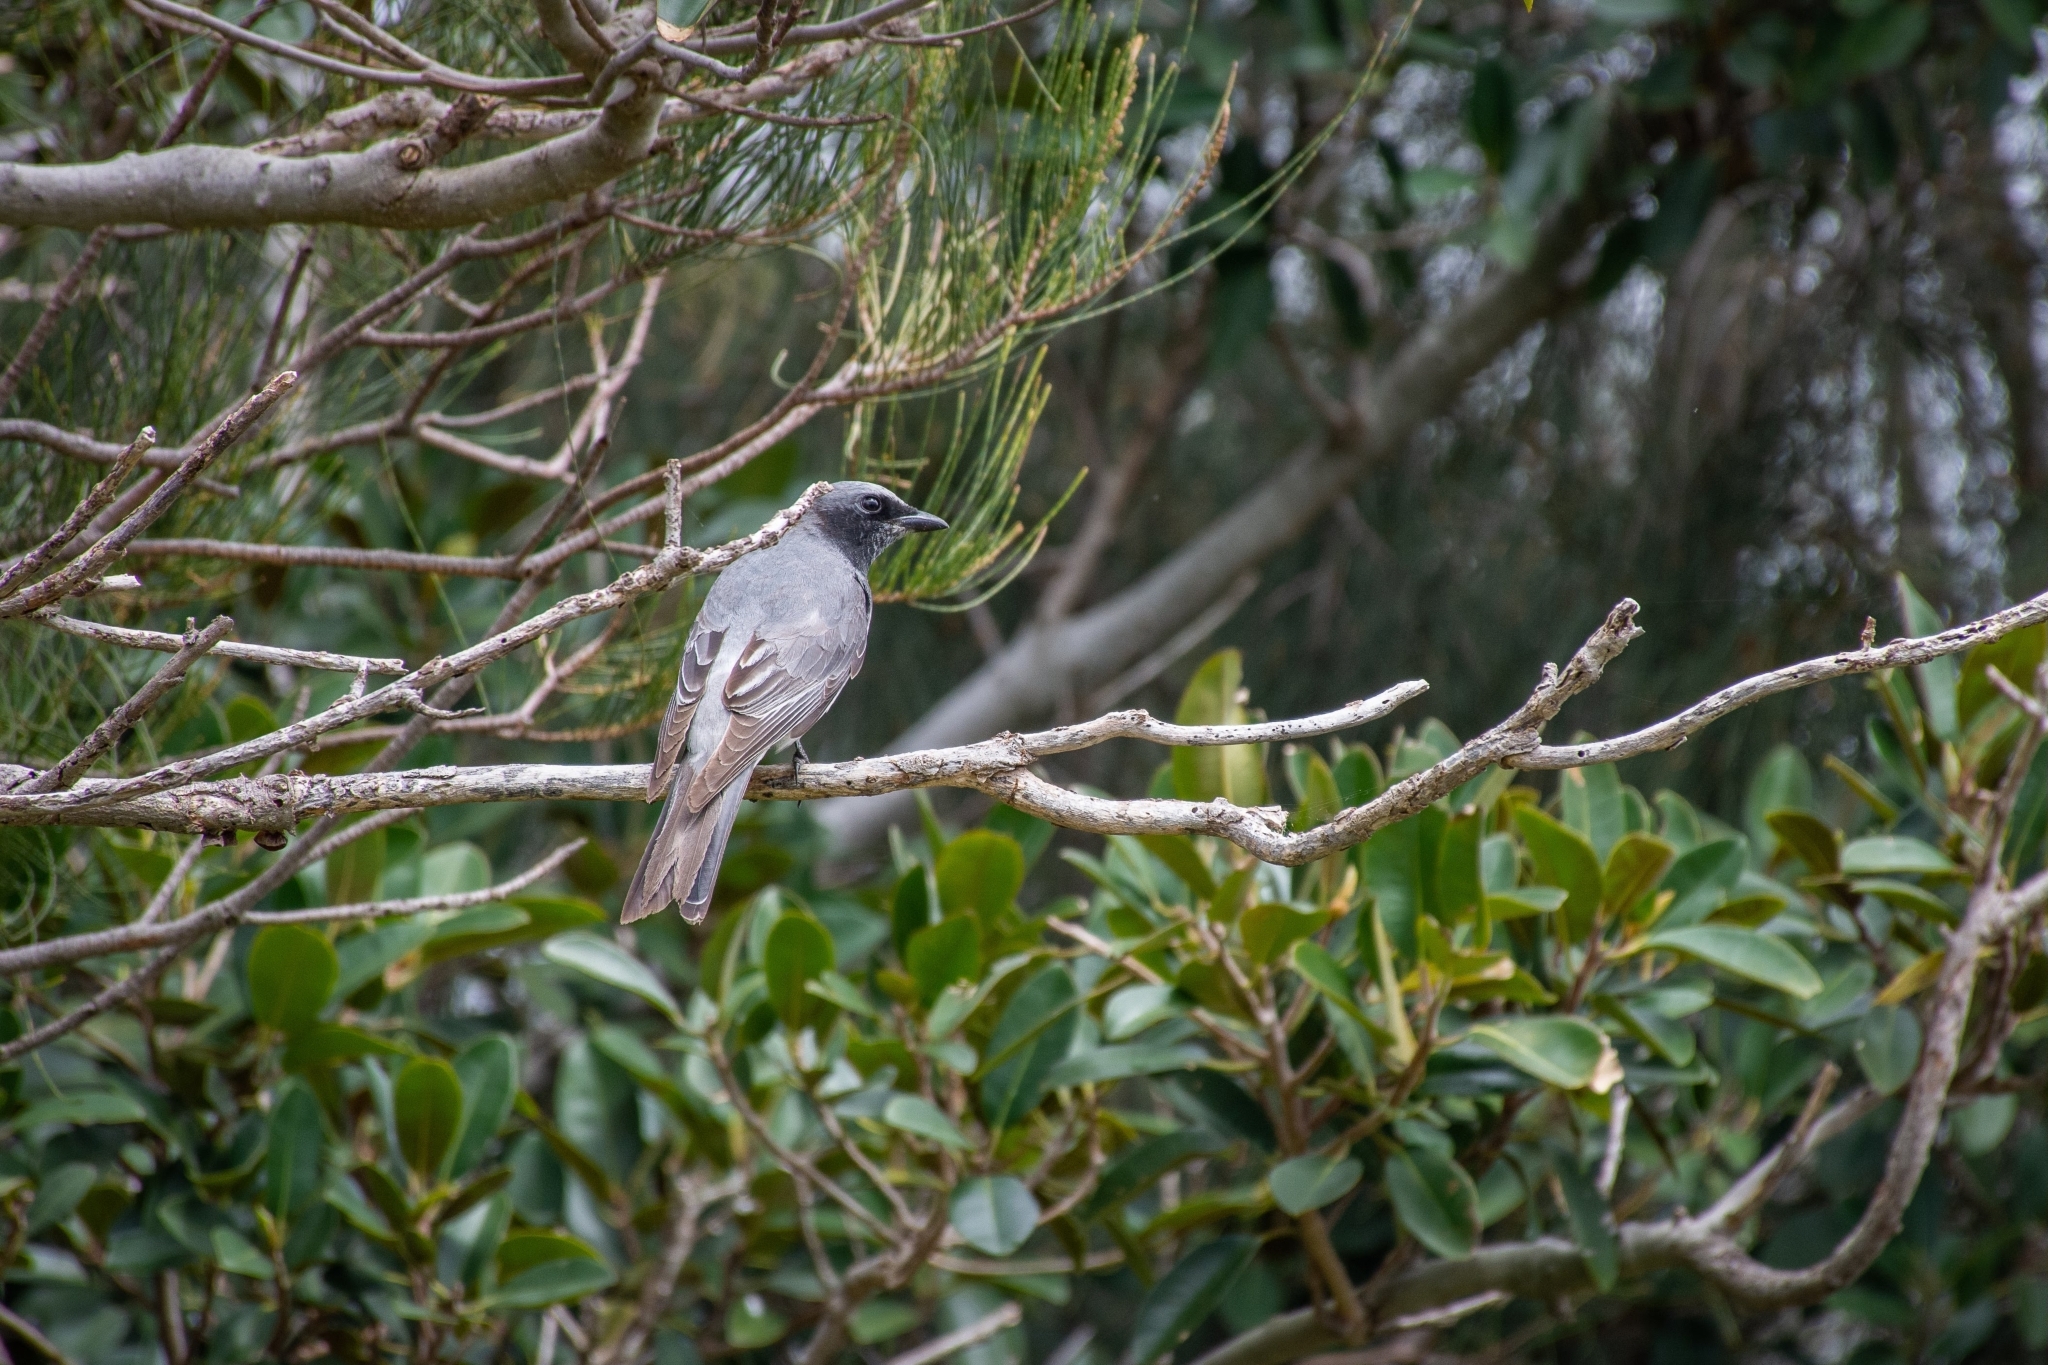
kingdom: Animalia
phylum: Chordata
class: Aves
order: Passeriformes
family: Campephagidae
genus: Coracina
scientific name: Coracina novaehollandiae
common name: Black-faced cuckooshrike
